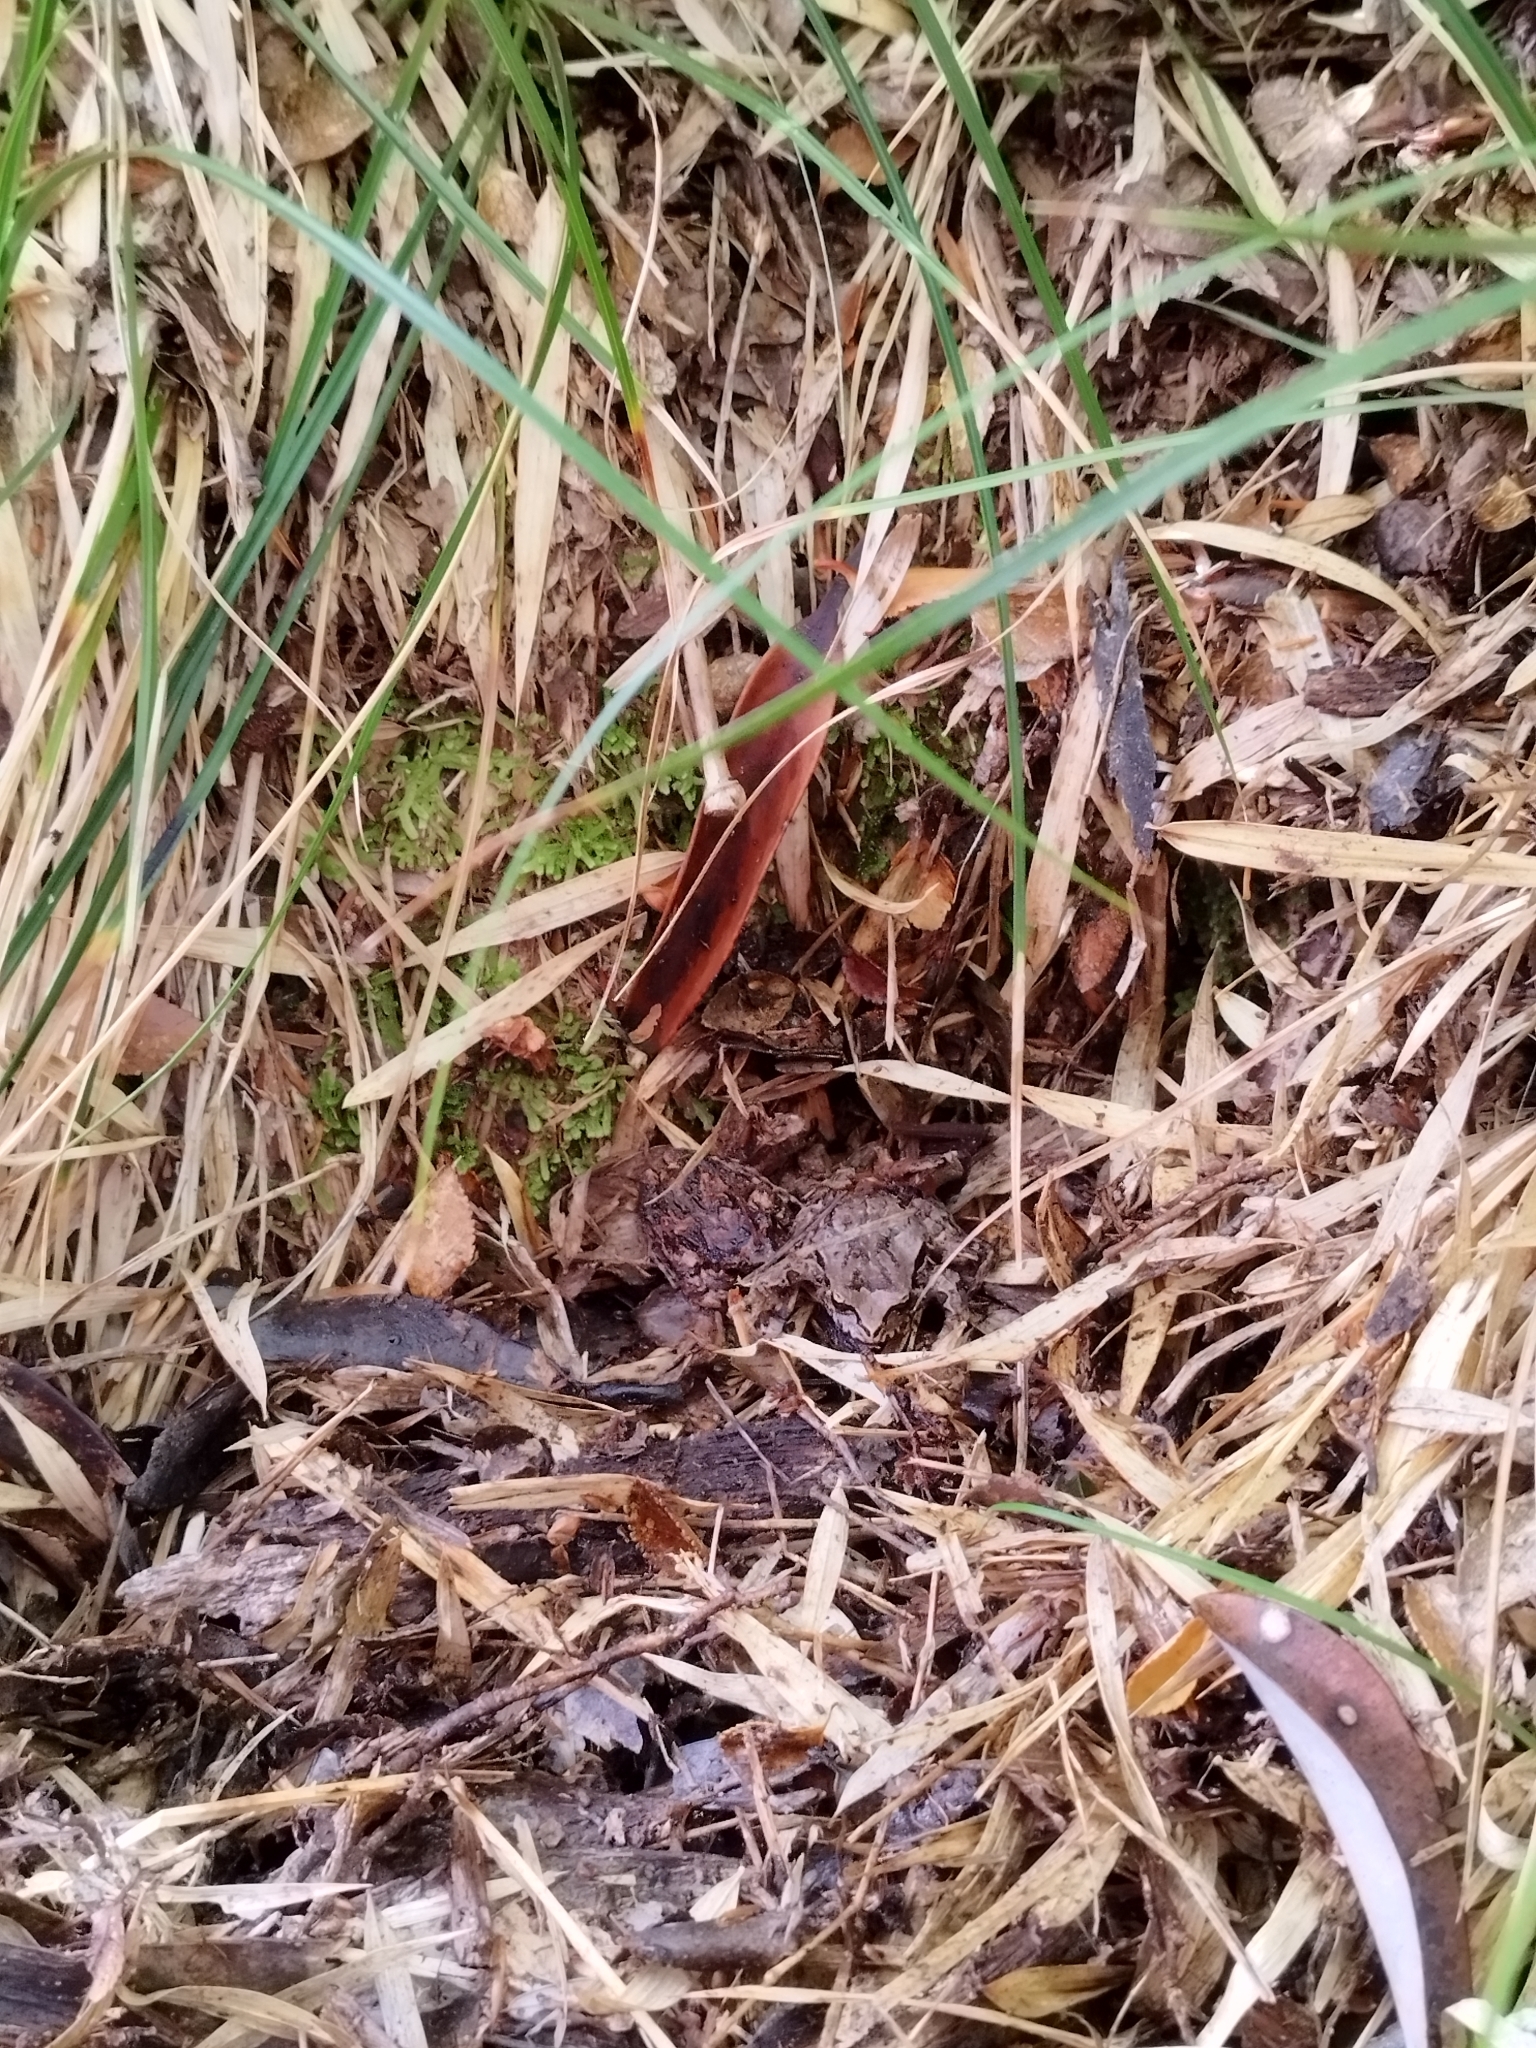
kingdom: Animalia
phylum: Chordata
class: Amphibia
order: Anura
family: Batrachylidae
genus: Batrachyla
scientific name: Batrachyla leptopus
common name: Gray wood frog
